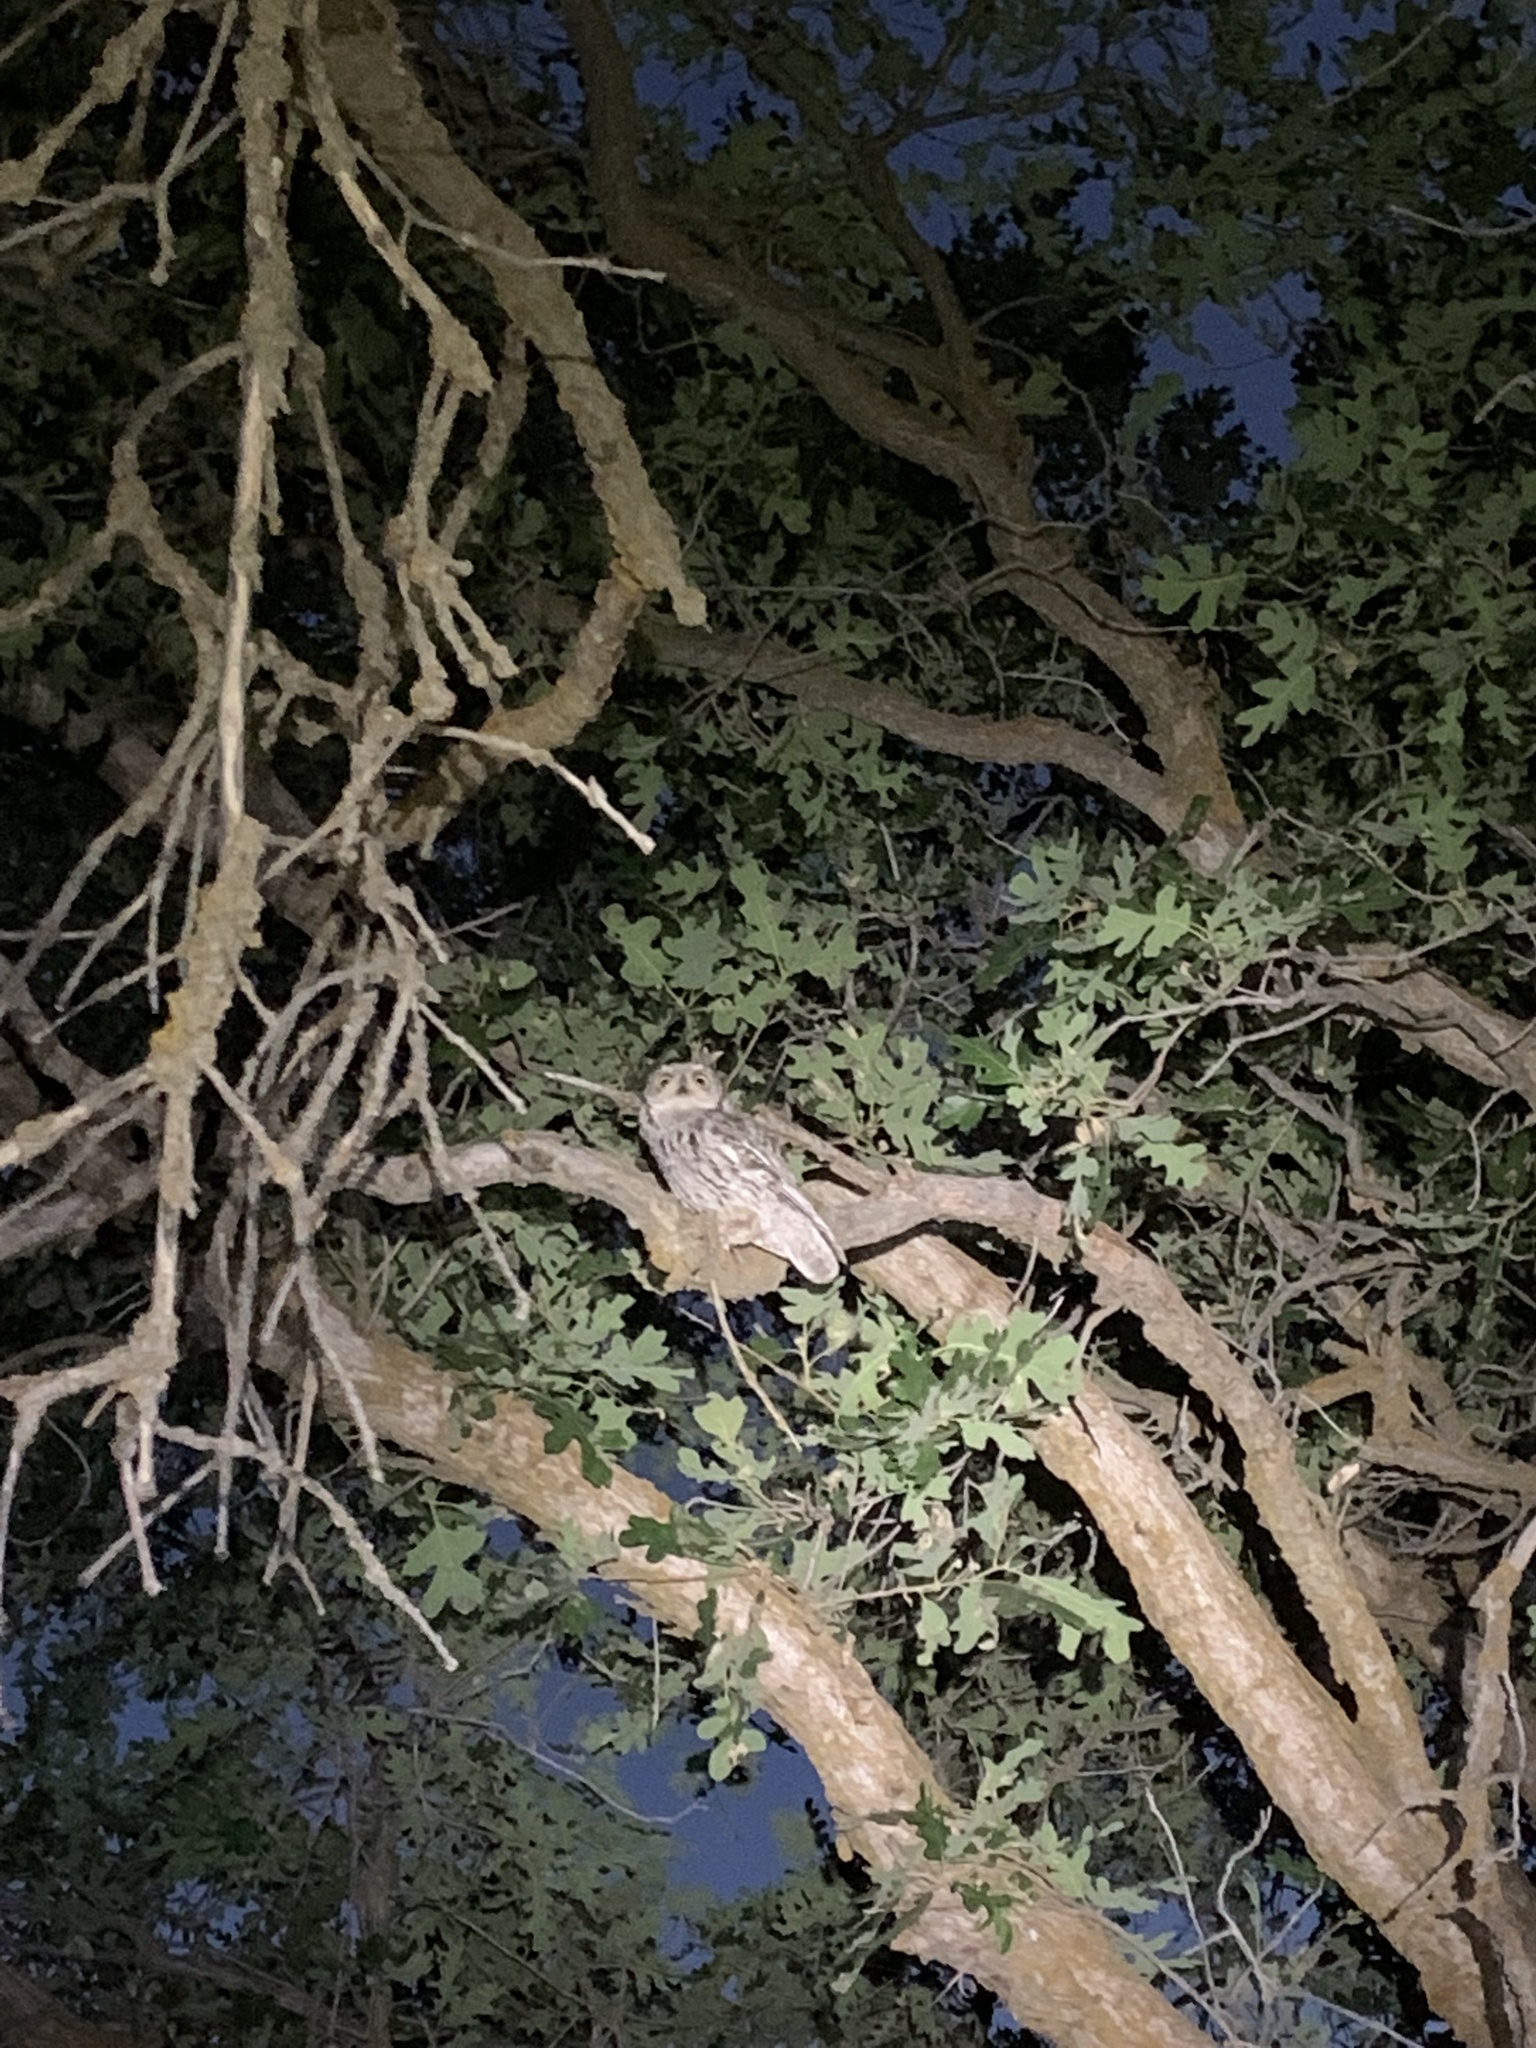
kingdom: Animalia
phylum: Chordata
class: Aves
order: Strigiformes
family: Strigidae
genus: Megascops
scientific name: Megascops kennicottii
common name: Western screech-owl
